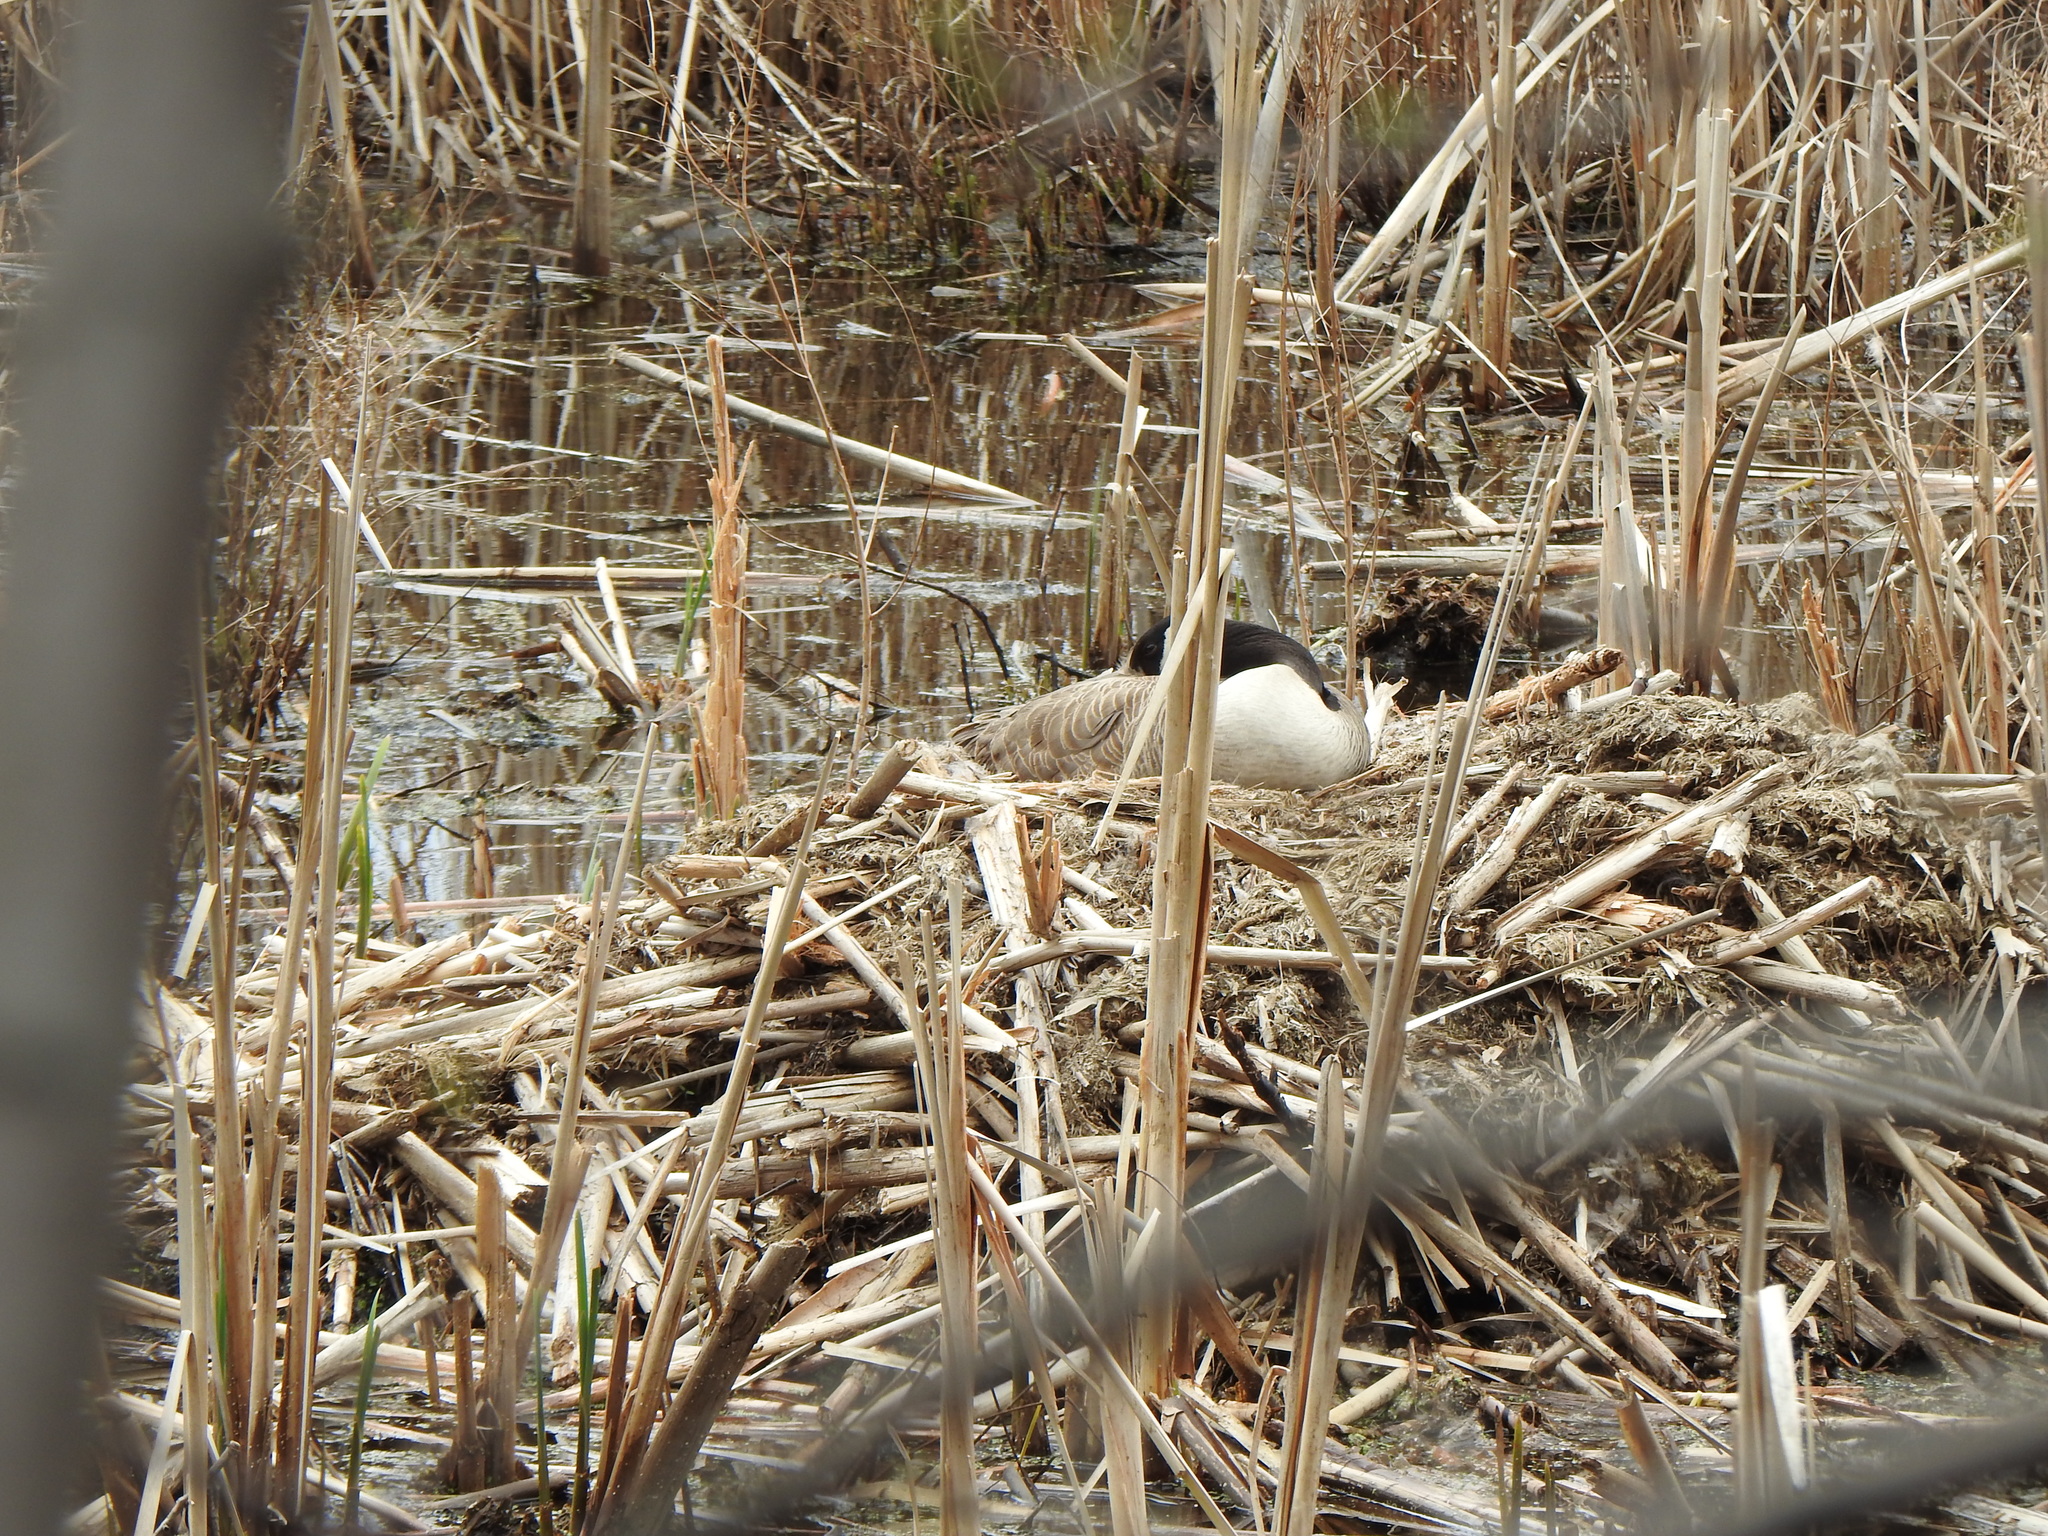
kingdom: Animalia
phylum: Chordata
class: Aves
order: Anseriformes
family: Anatidae
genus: Branta
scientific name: Branta canadensis
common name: Canada goose
